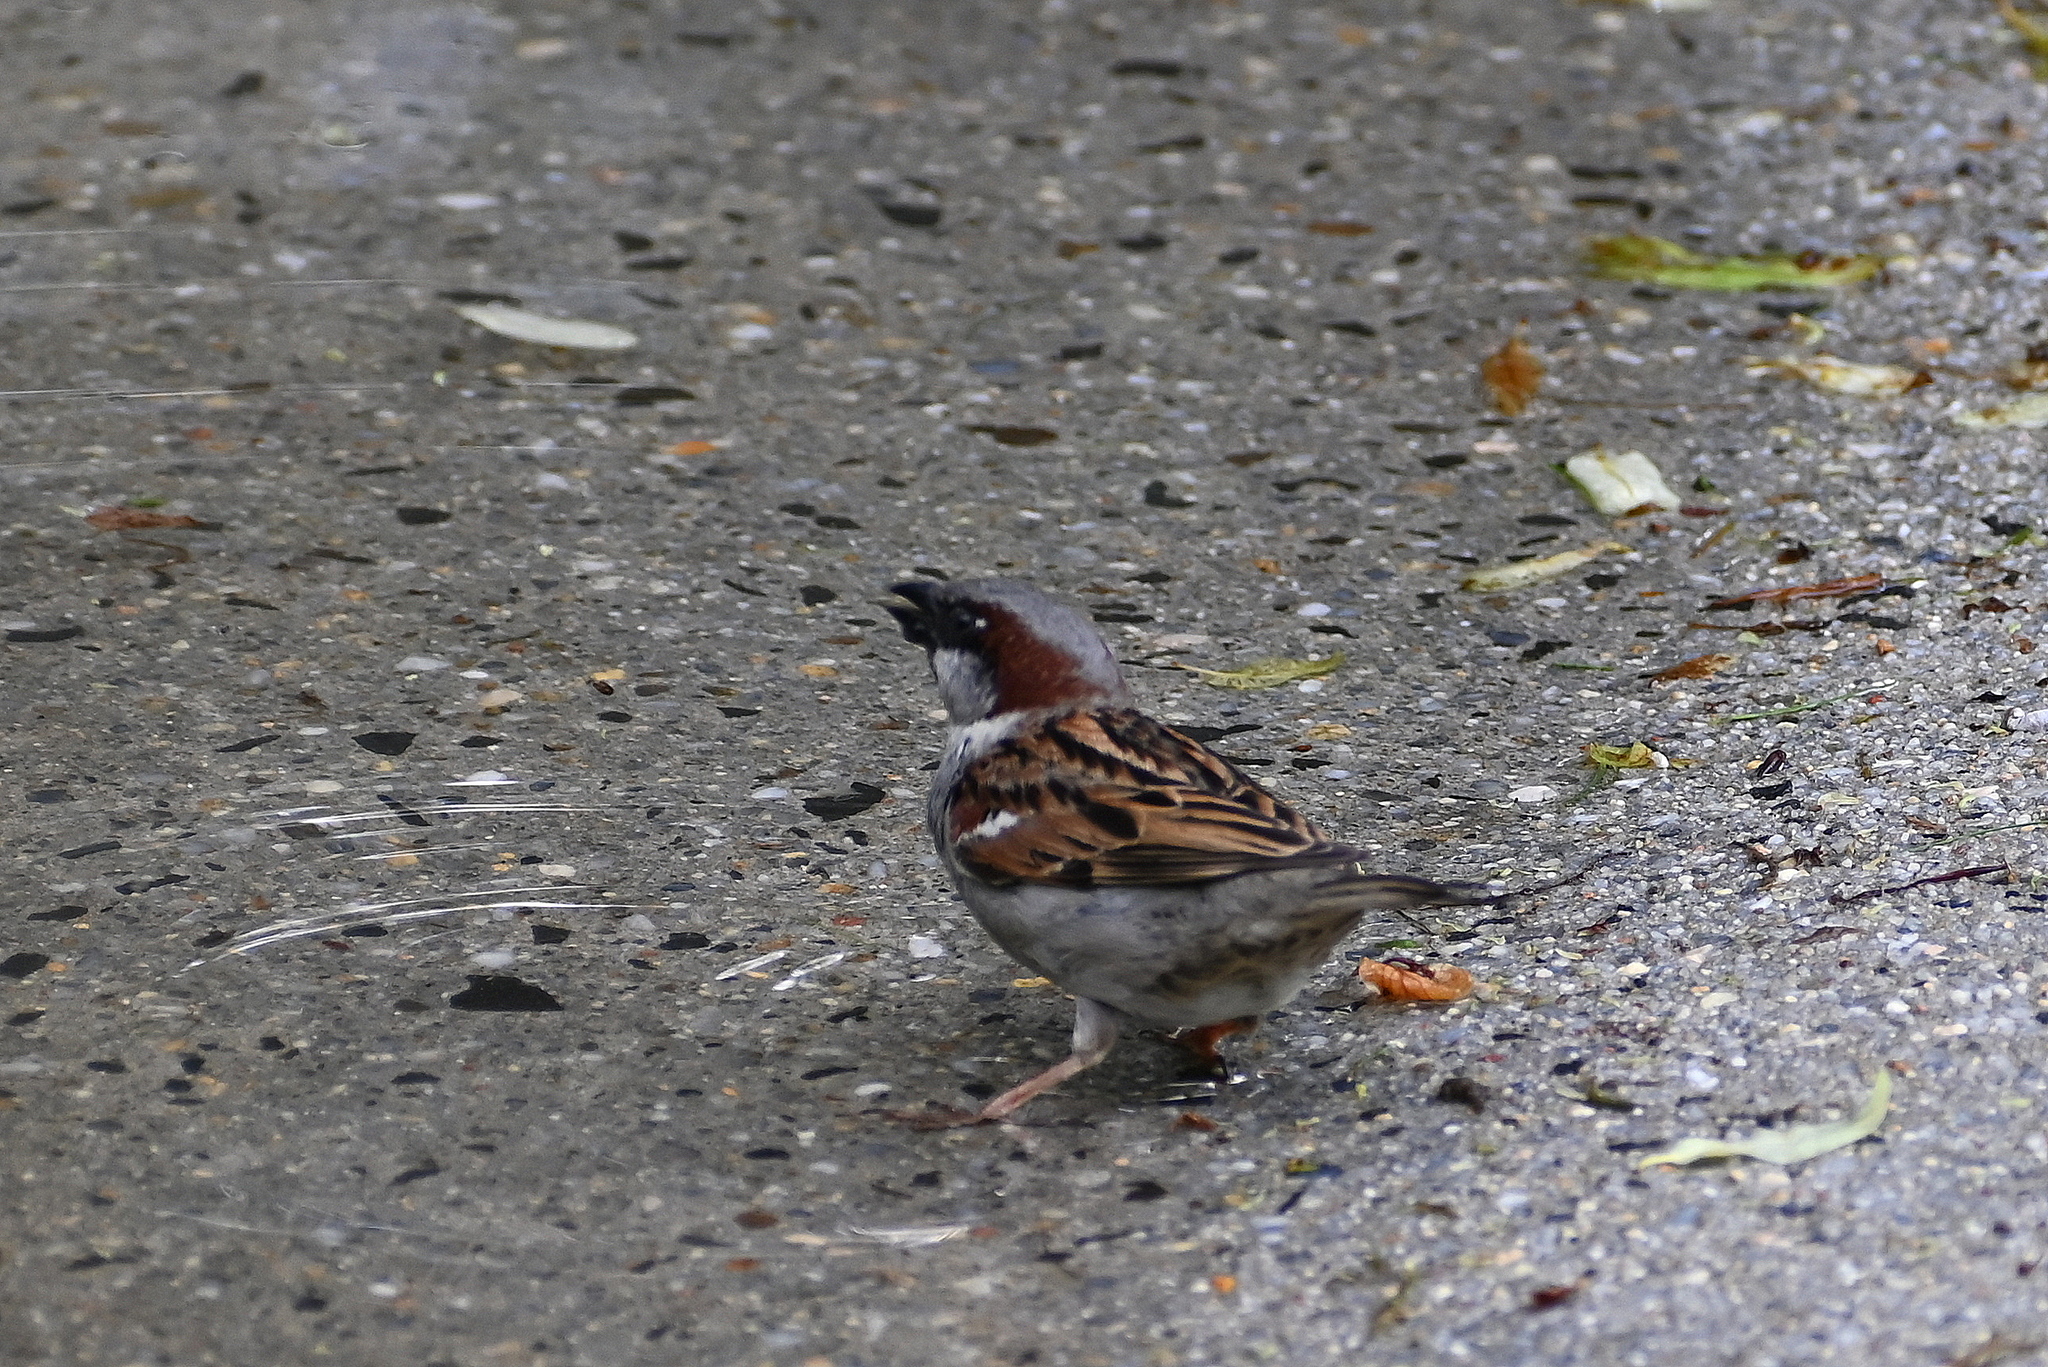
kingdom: Animalia
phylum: Chordata
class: Aves
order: Passeriformes
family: Passeridae
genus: Passer
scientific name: Passer domesticus
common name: House sparrow
